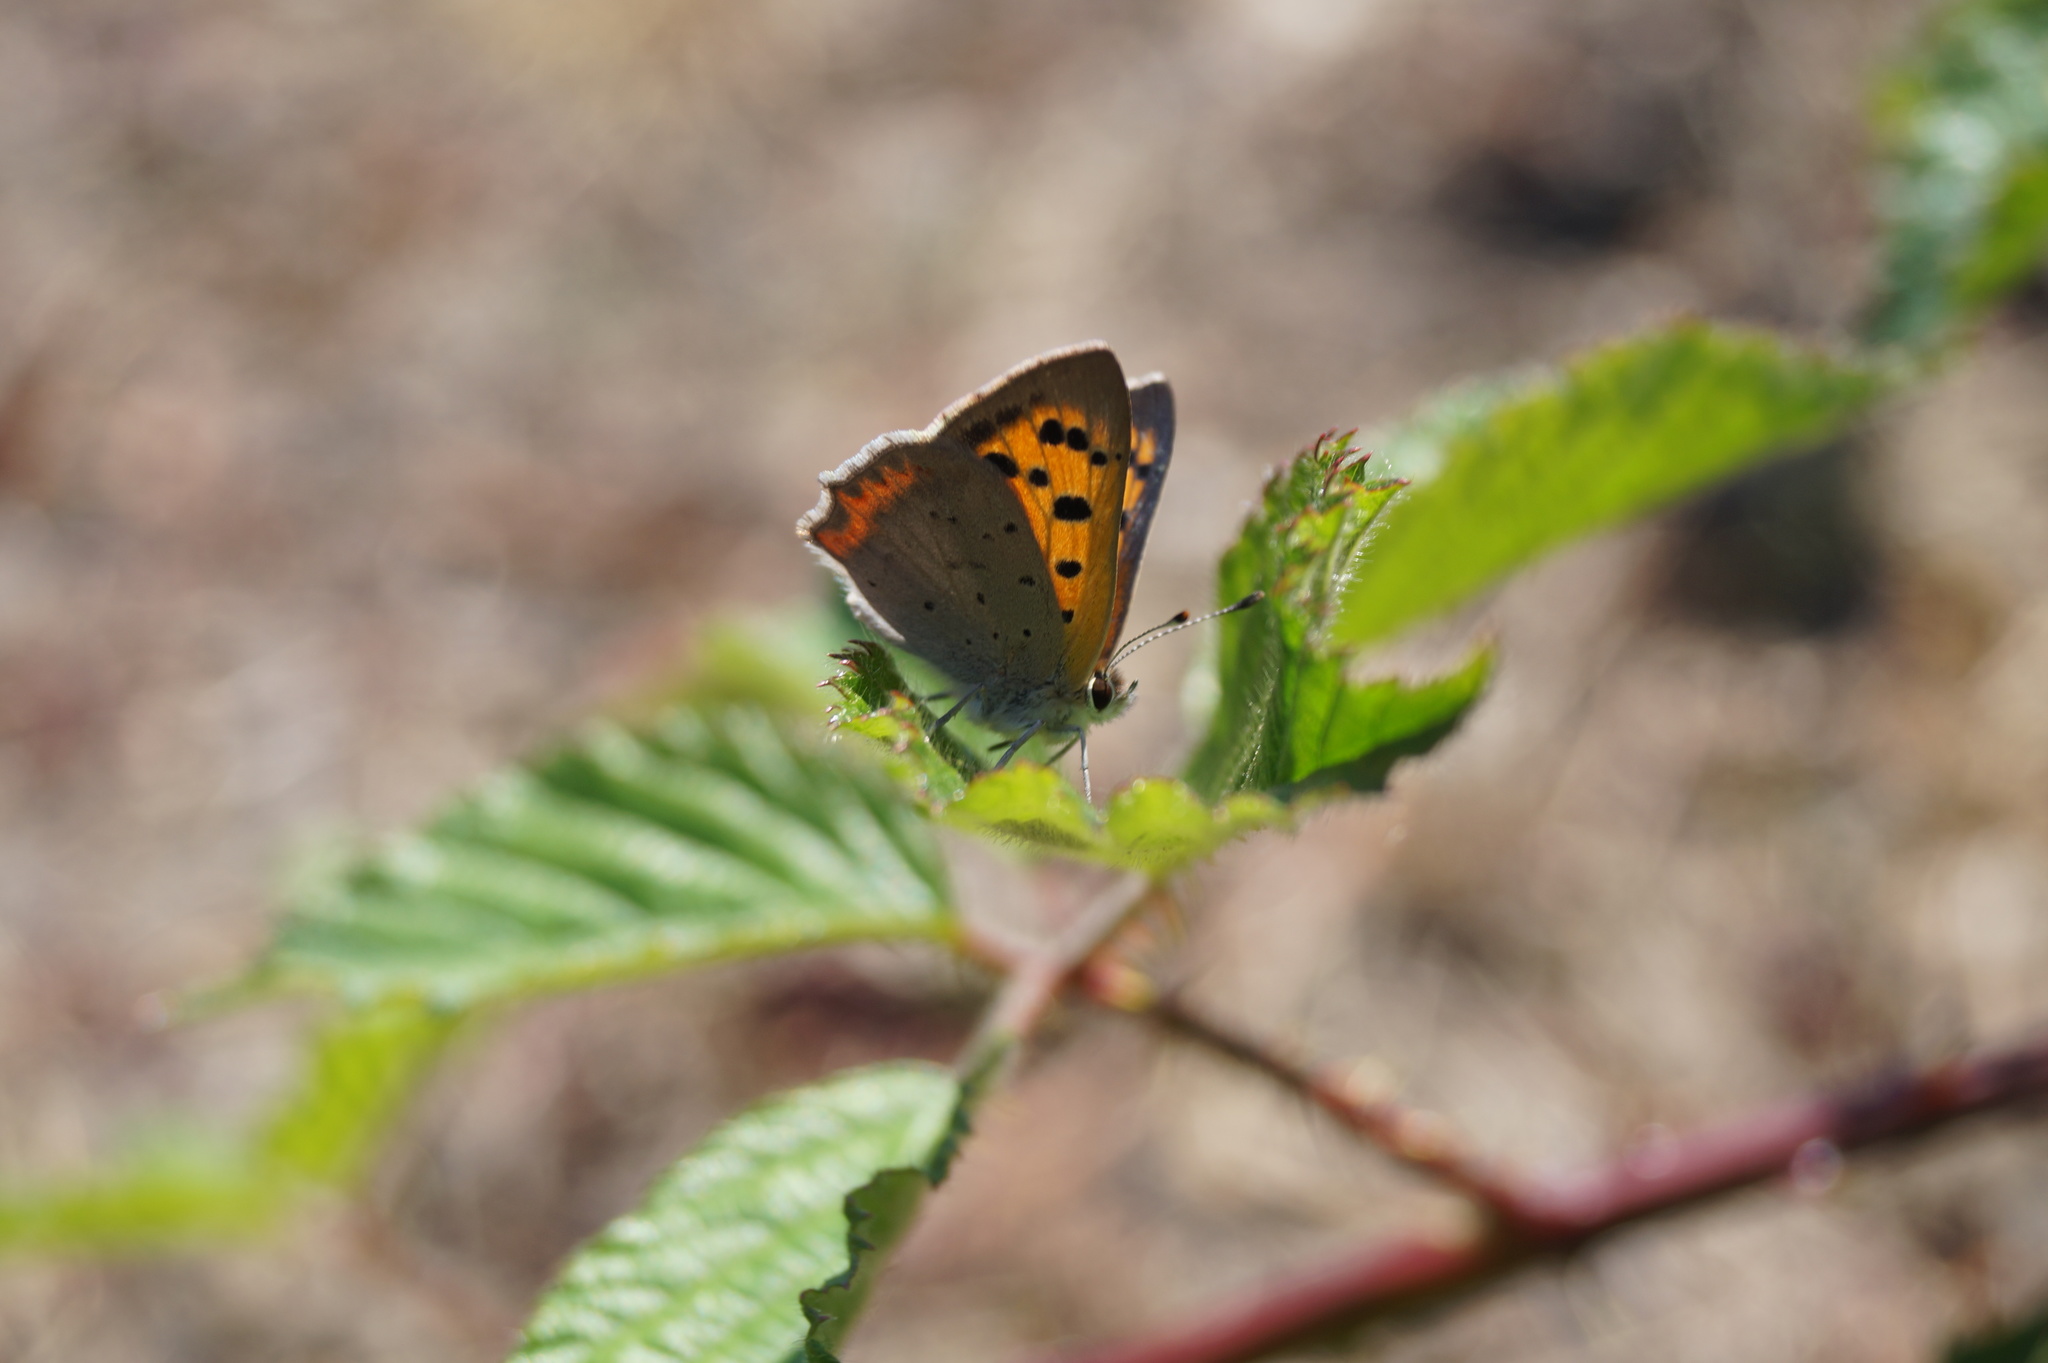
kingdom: Animalia
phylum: Arthropoda
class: Insecta
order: Lepidoptera
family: Lycaenidae
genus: Lycaena
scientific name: Lycaena phlaeas
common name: Small copper
